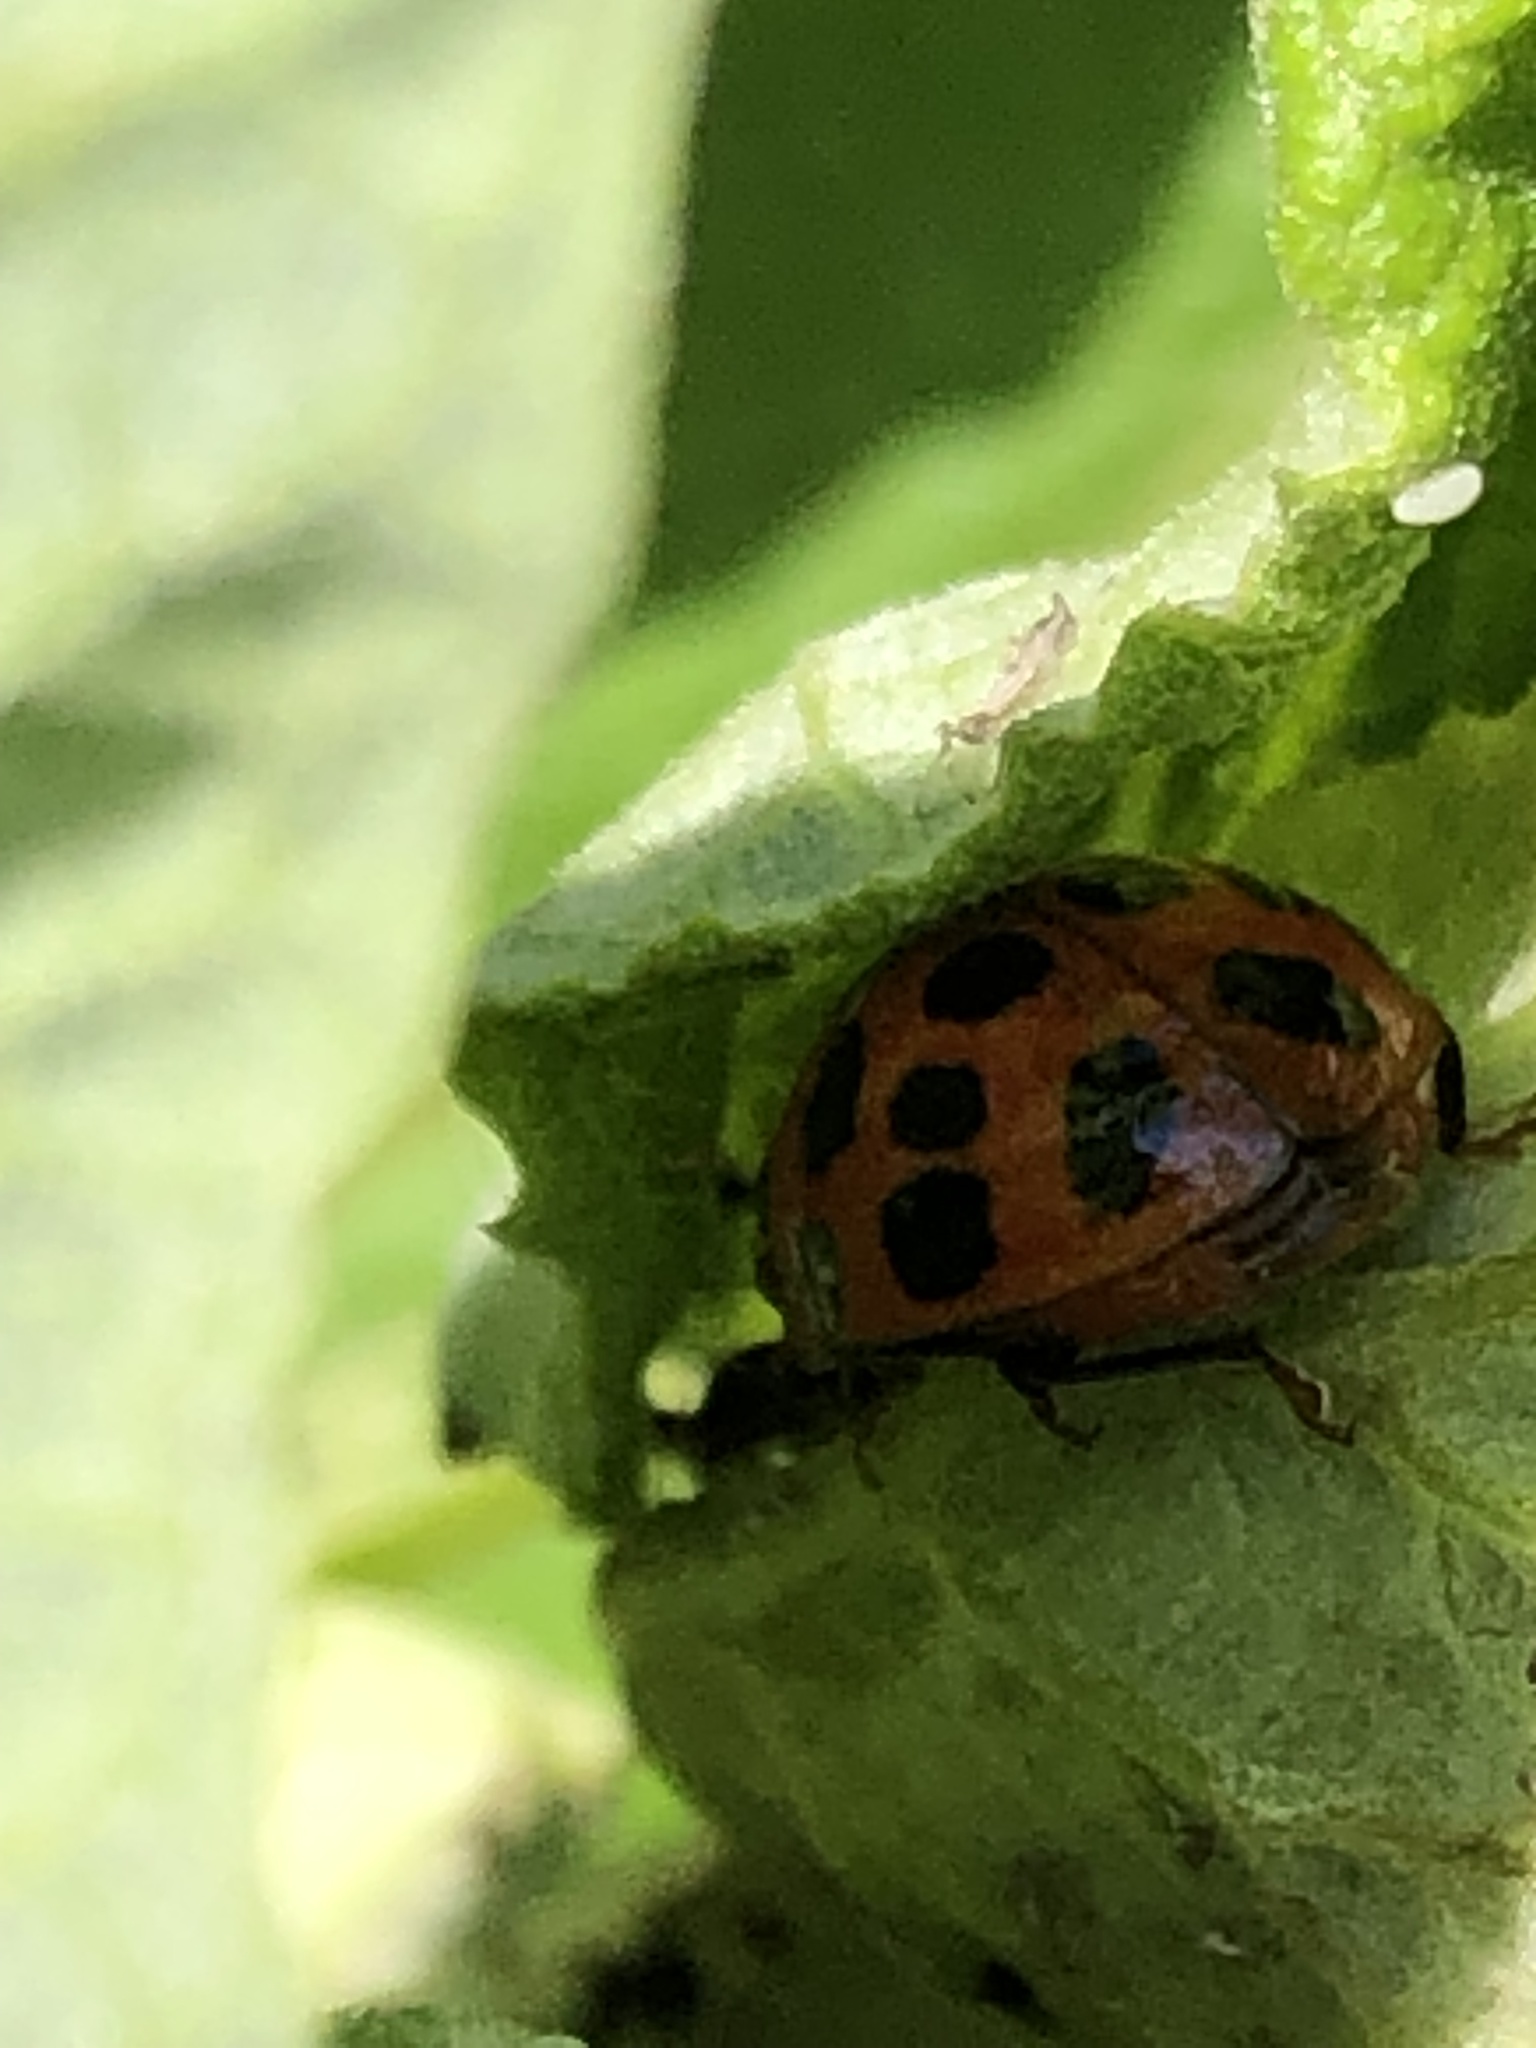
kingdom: Animalia
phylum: Arthropoda
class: Insecta
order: Coleoptera
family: Coccinellidae
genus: Harmonia
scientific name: Harmonia axyridis
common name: Harlequin ladybird
